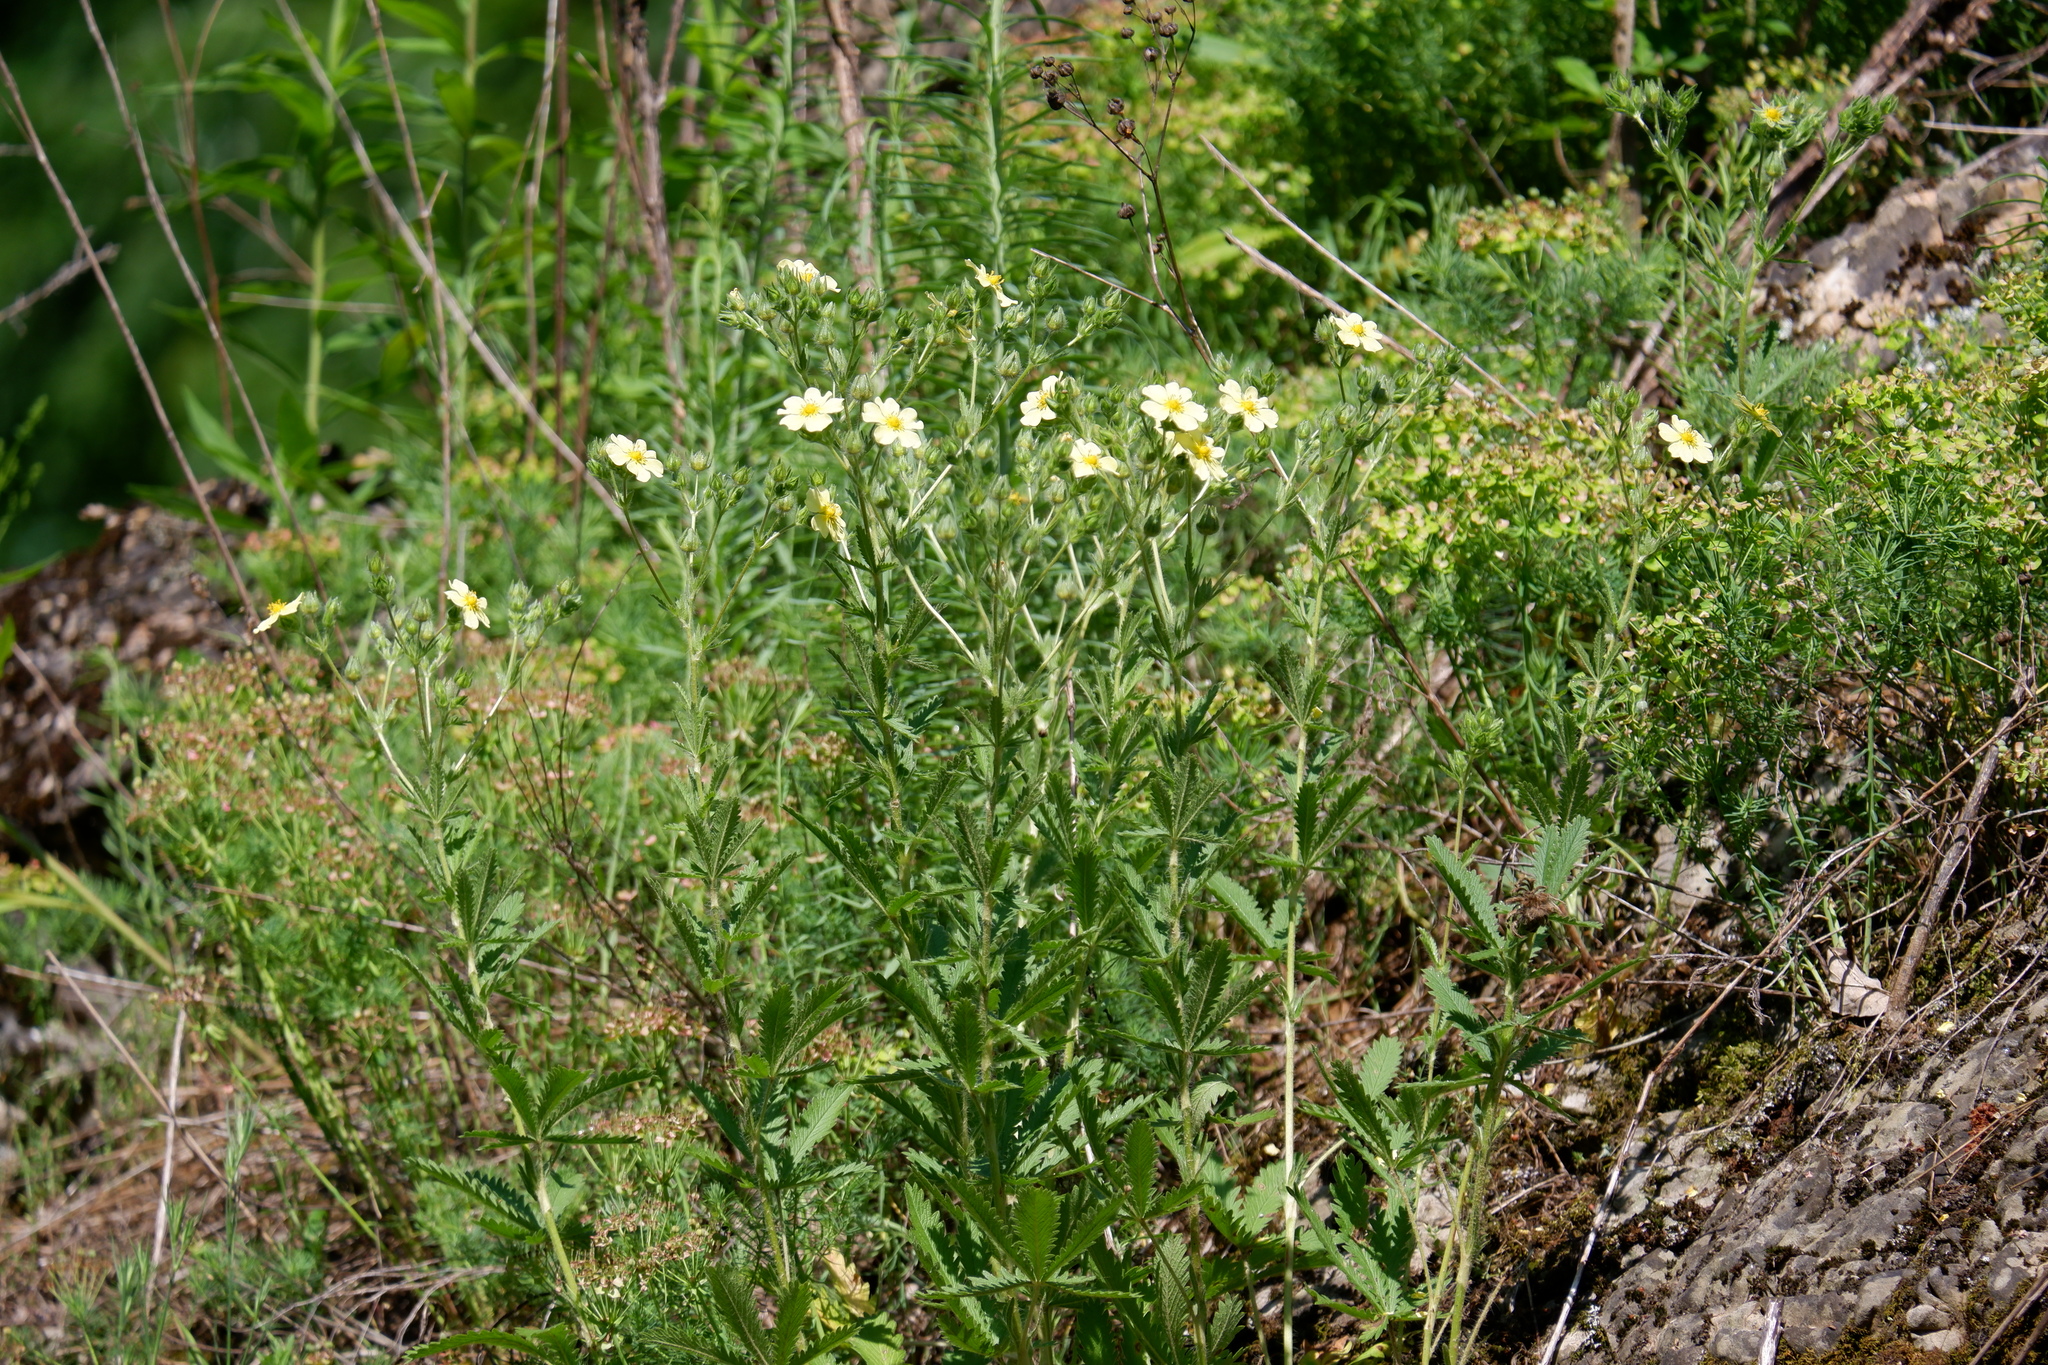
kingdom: Plantae
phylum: Tracheophyta
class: Magnoliopsida
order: Rosales
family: Rosaceae
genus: Potentilla
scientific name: Potentilla recta
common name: Sulphur cinquefoil
